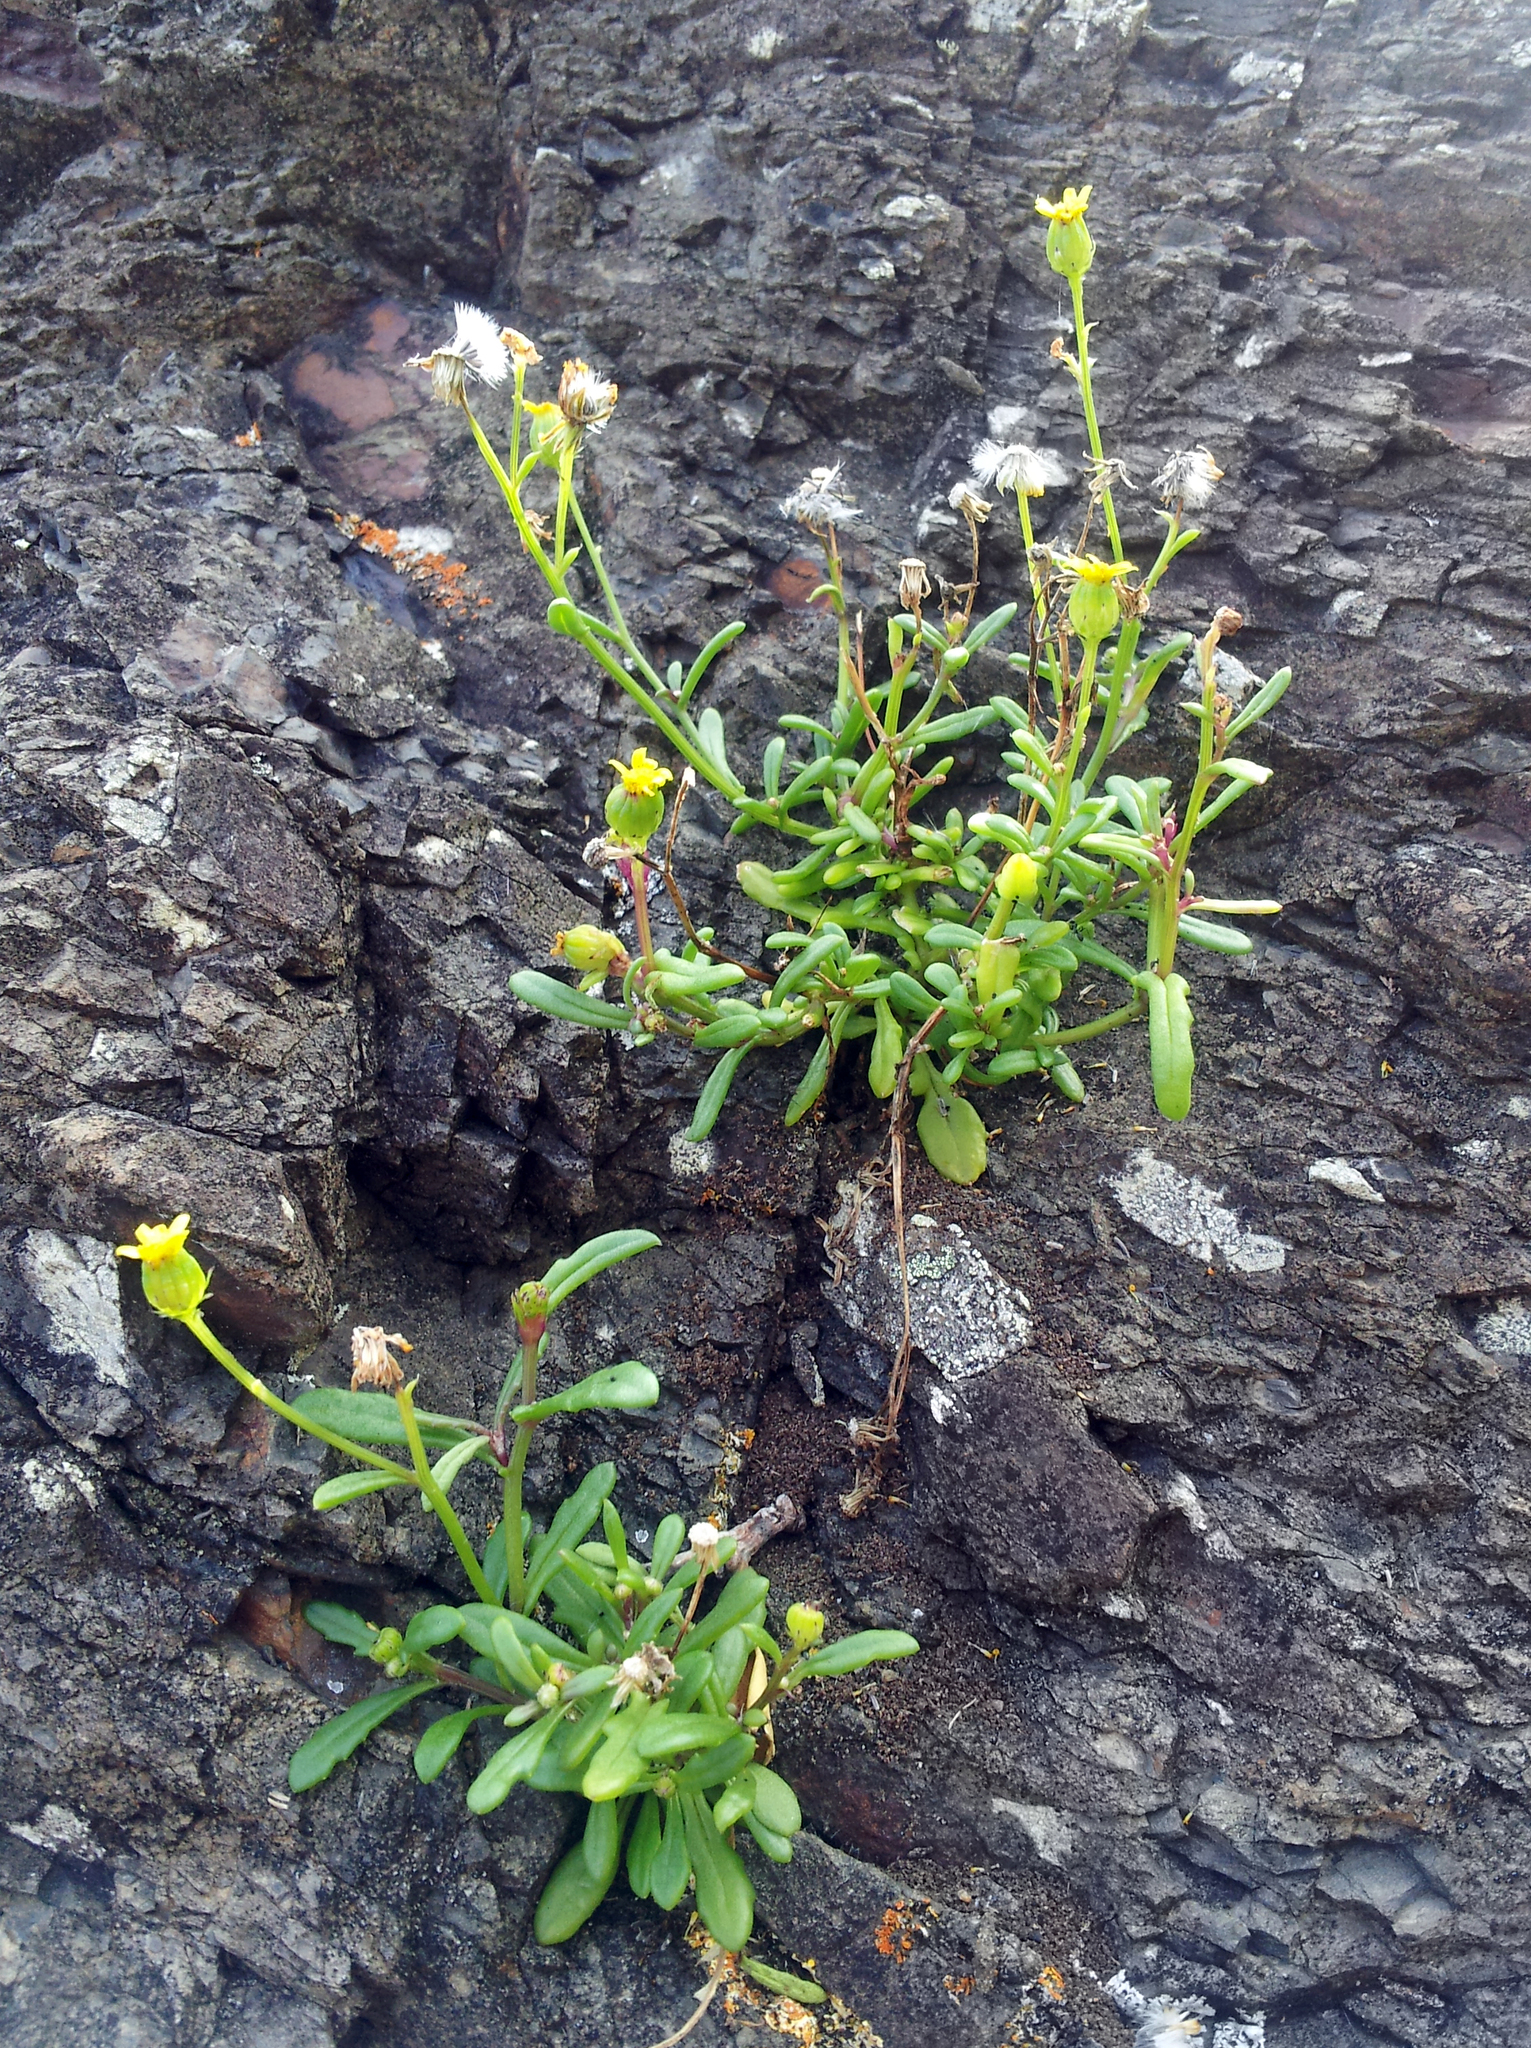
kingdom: Plantae
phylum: Tracheophyta
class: Magnoliopsida
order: Asterales
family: Asteraceae
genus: Senecio
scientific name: Senecio lautus
